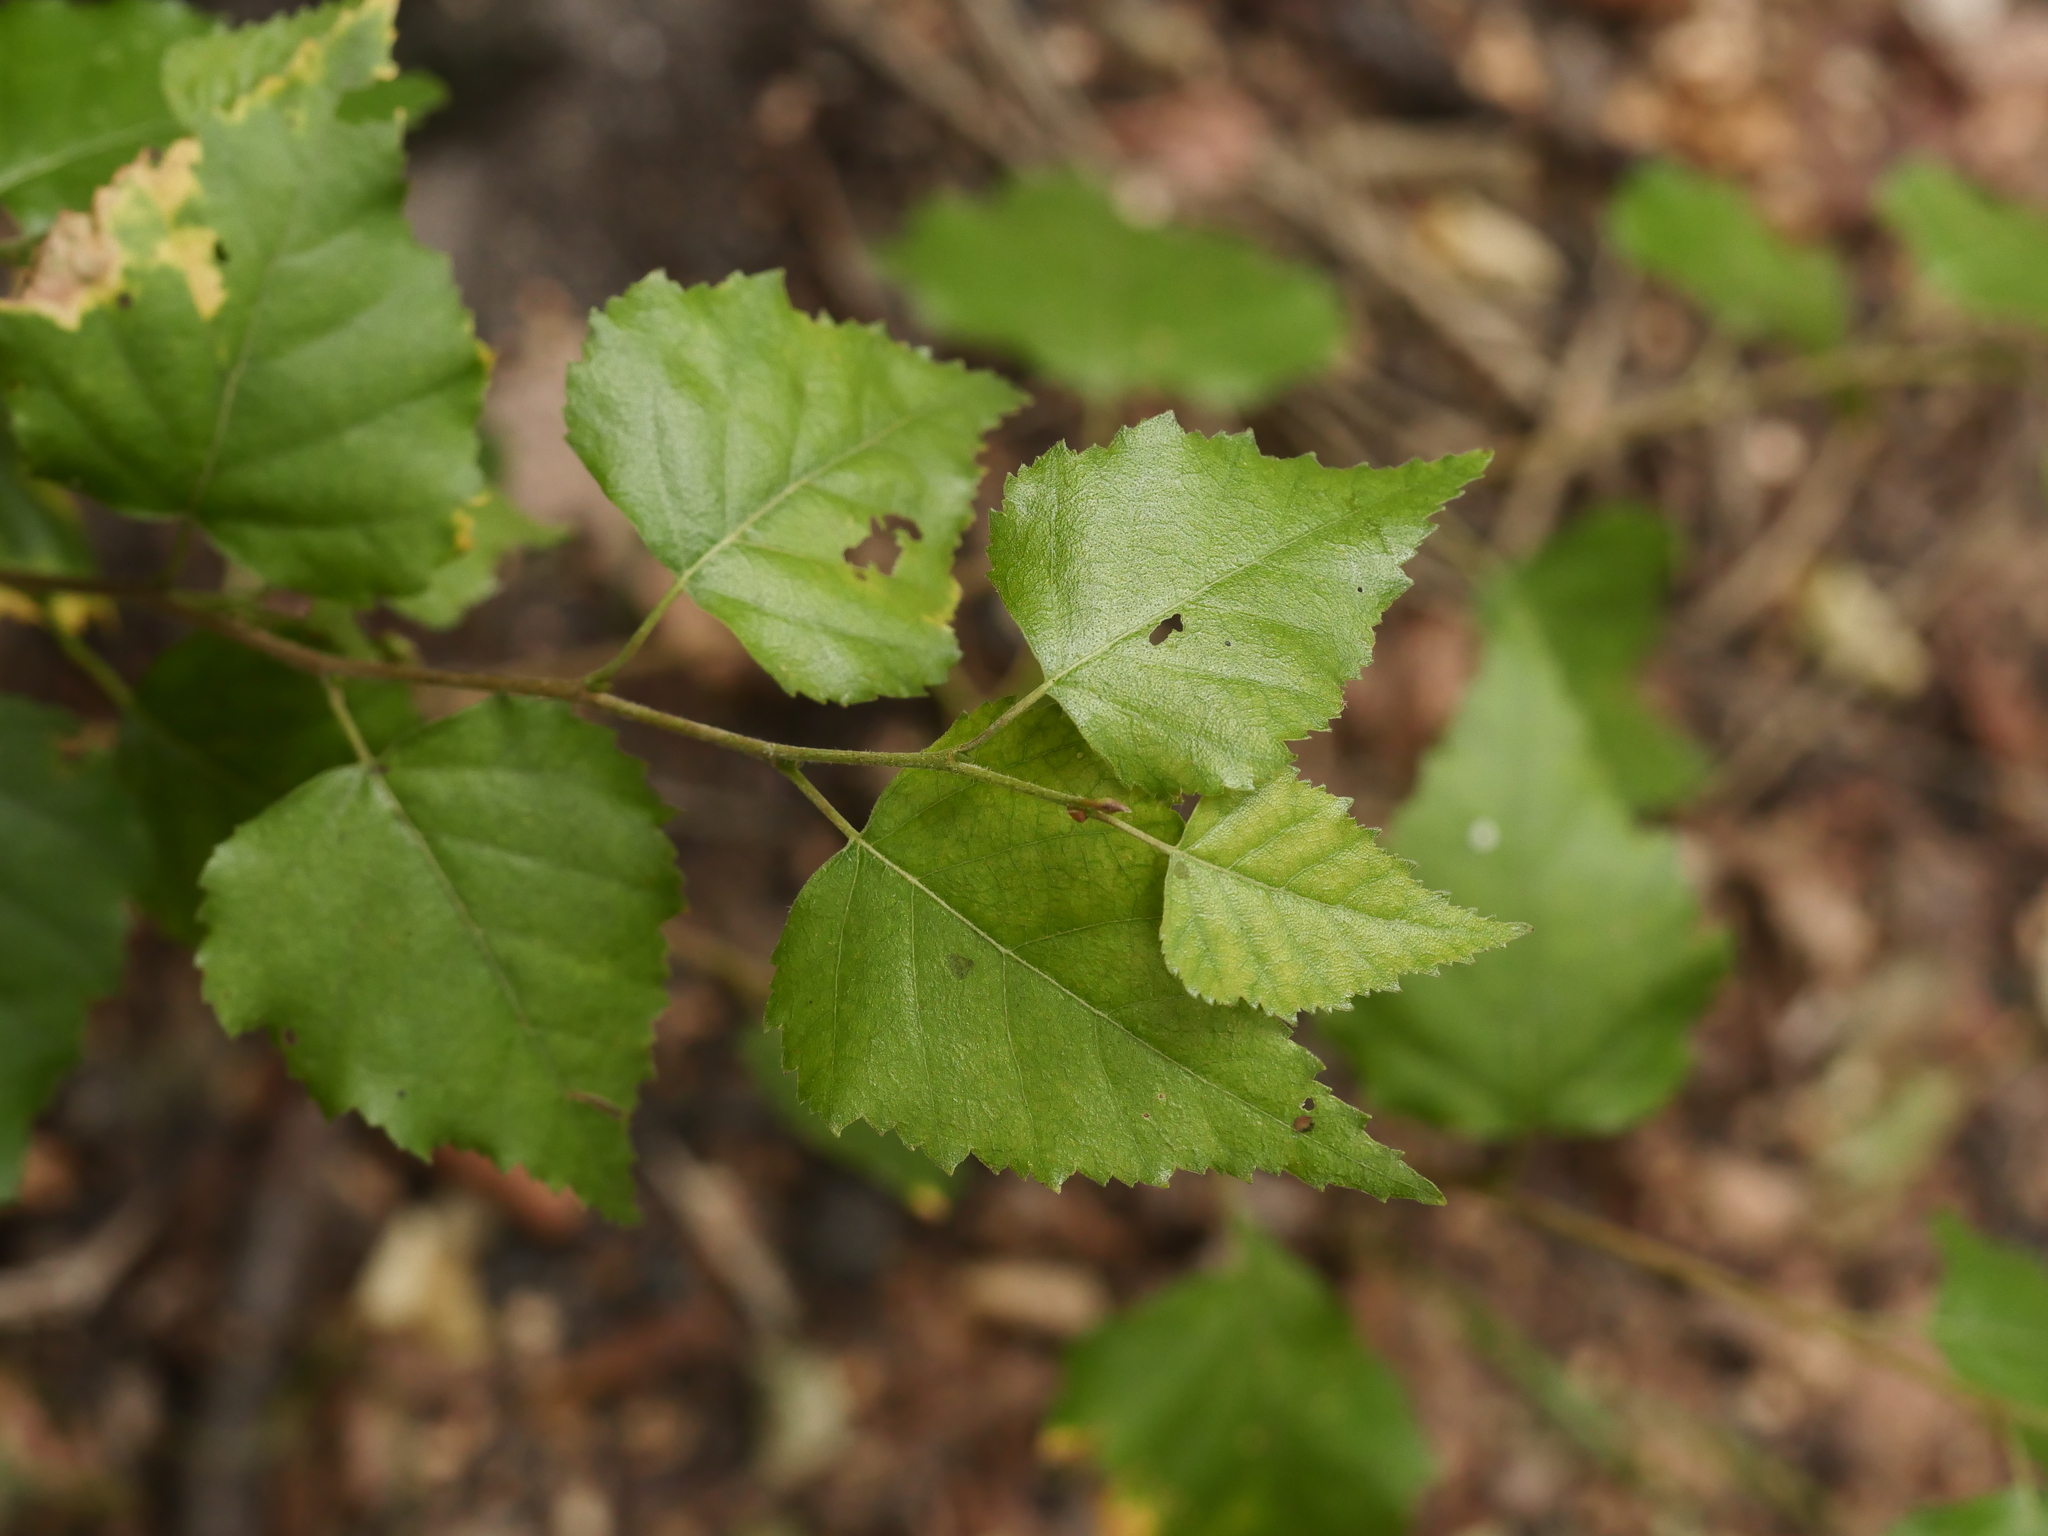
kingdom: Plantae
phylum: Tracheophyta
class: Magnoliopsida
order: Fagales
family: Betulaceae
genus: Betula
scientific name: Betula pendula
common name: Silver birch
